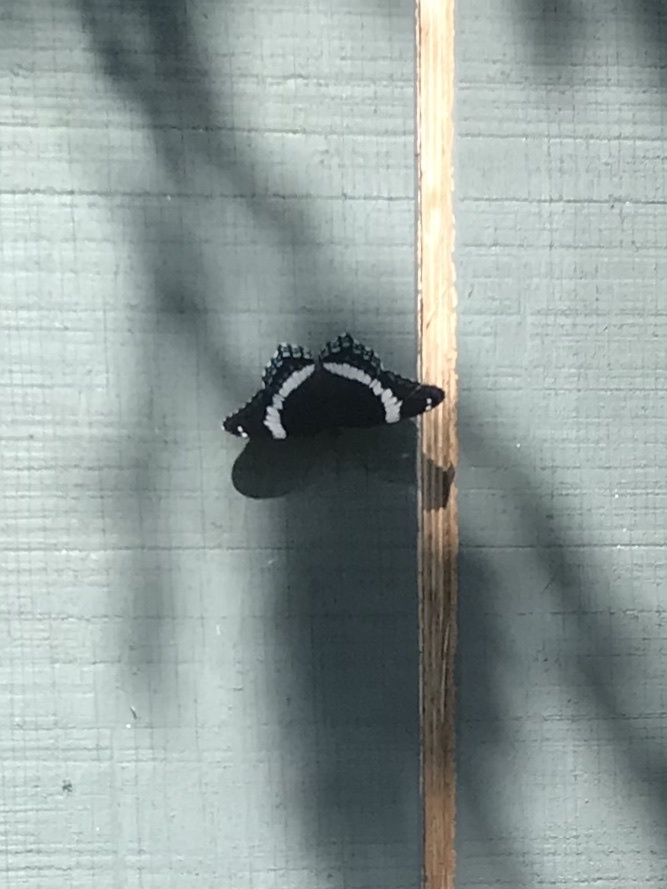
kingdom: Animalia
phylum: Arthropoda
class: Insecta
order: Lepidoptera
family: Nymphalidae
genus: Limenitis
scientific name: Limenitis arthemis
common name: Red-spotted admiral
